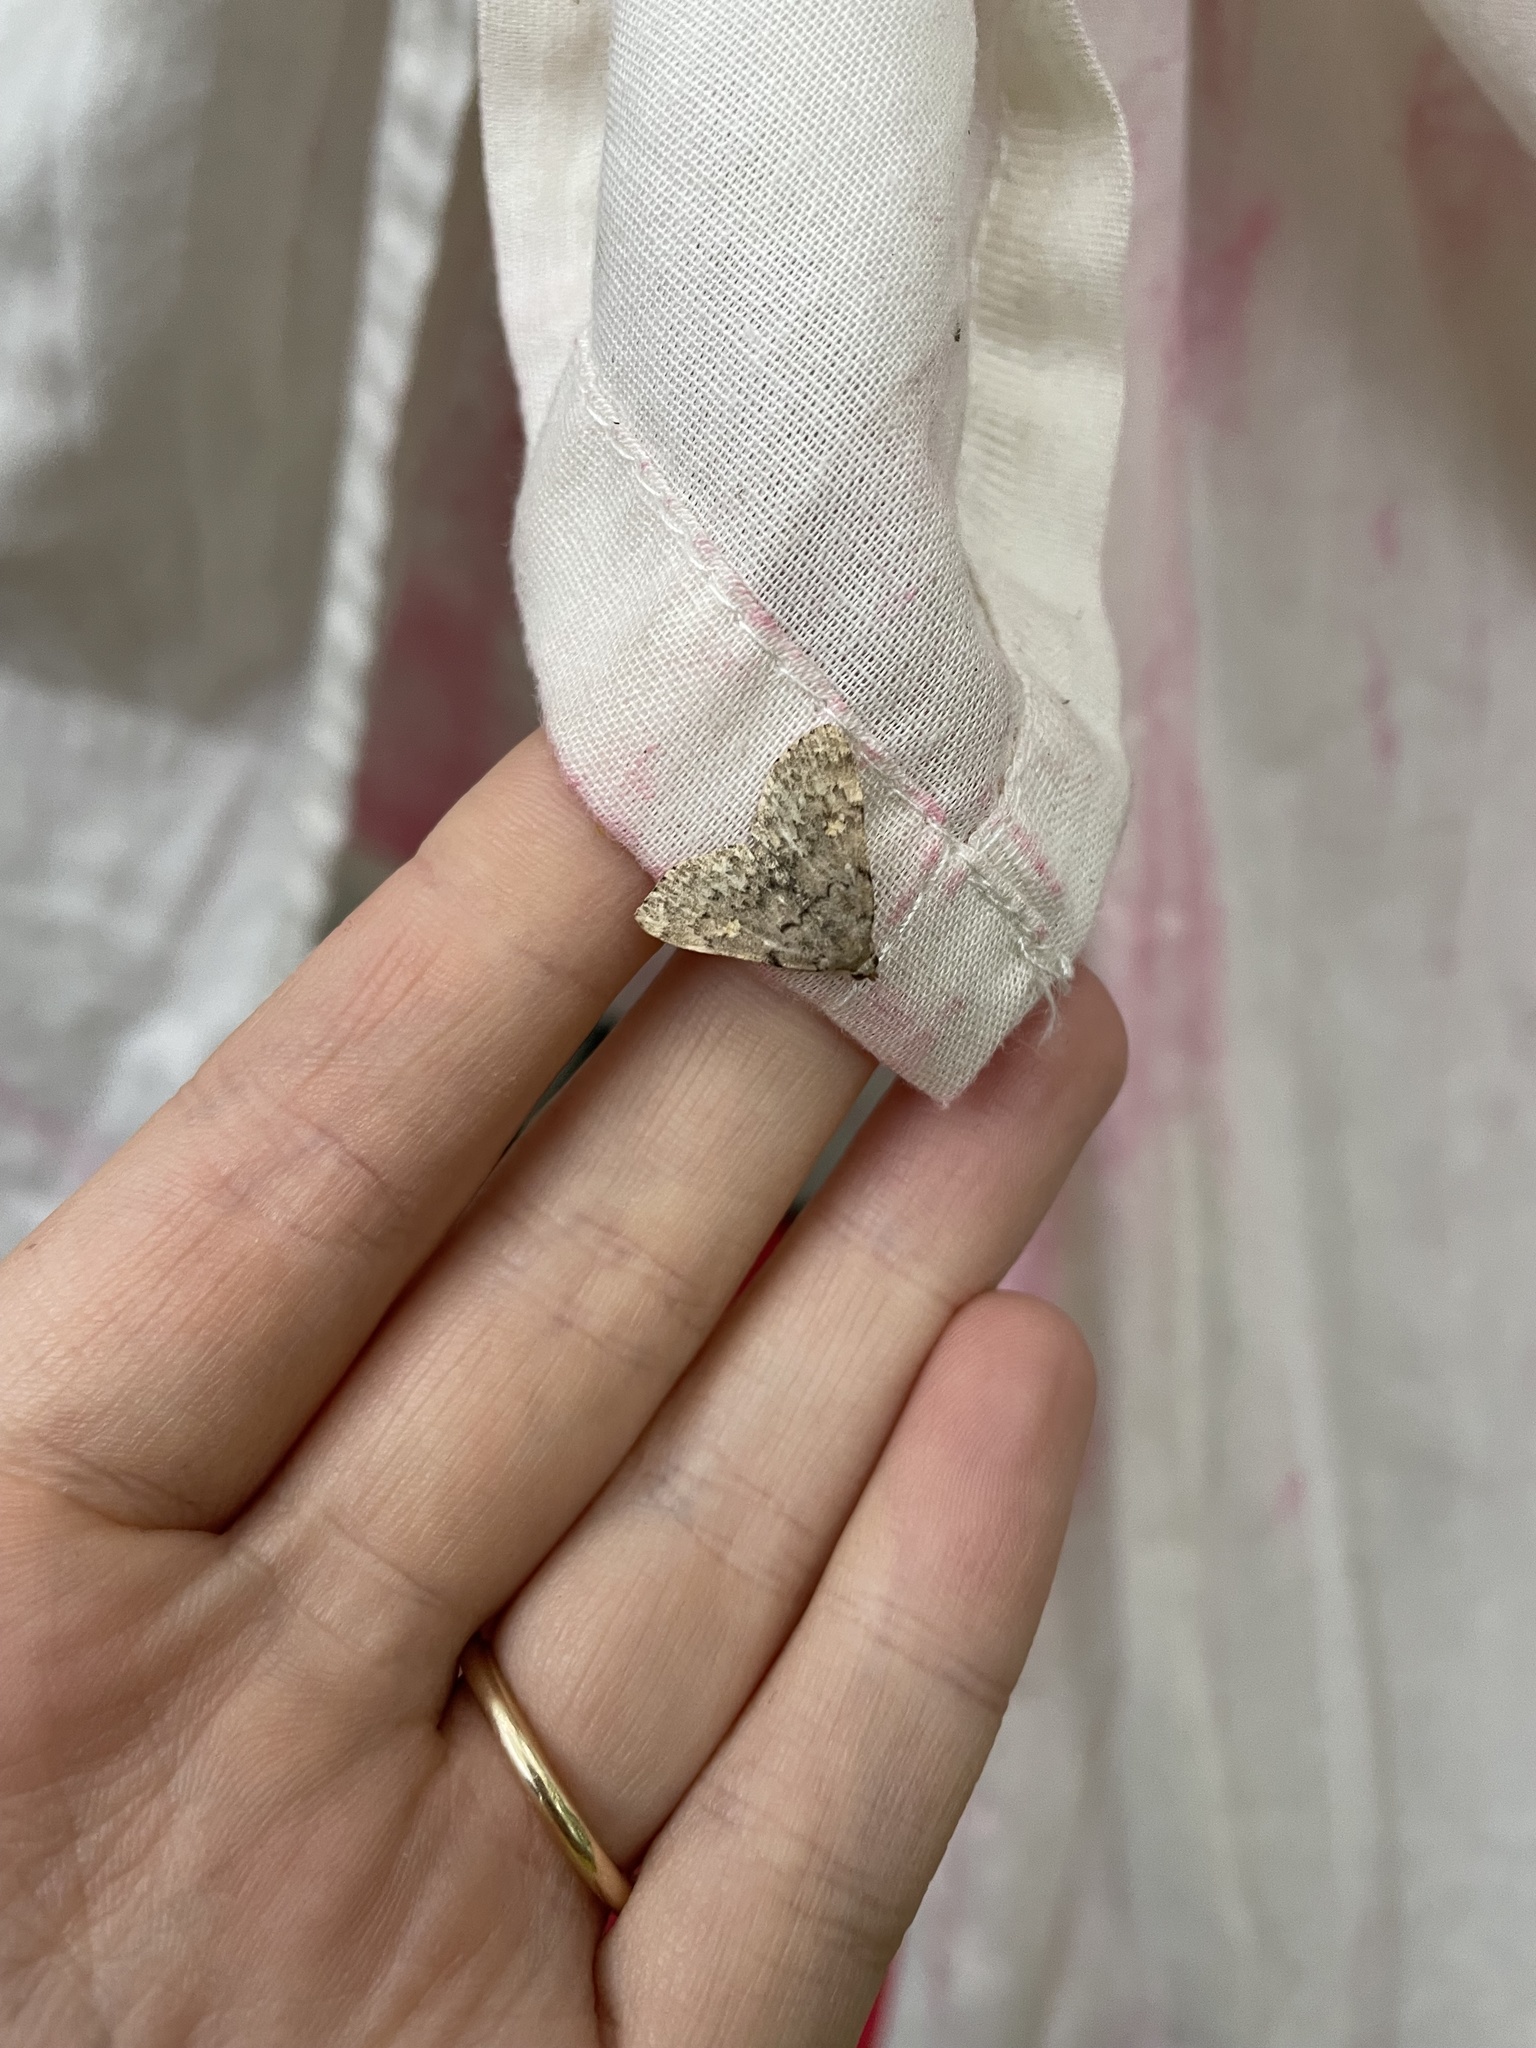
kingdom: Animalia
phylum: Arthropoda
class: Insecta
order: Lepidoptera
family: Erebidae
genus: Idia
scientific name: Idia aemula
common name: Common idia moth
